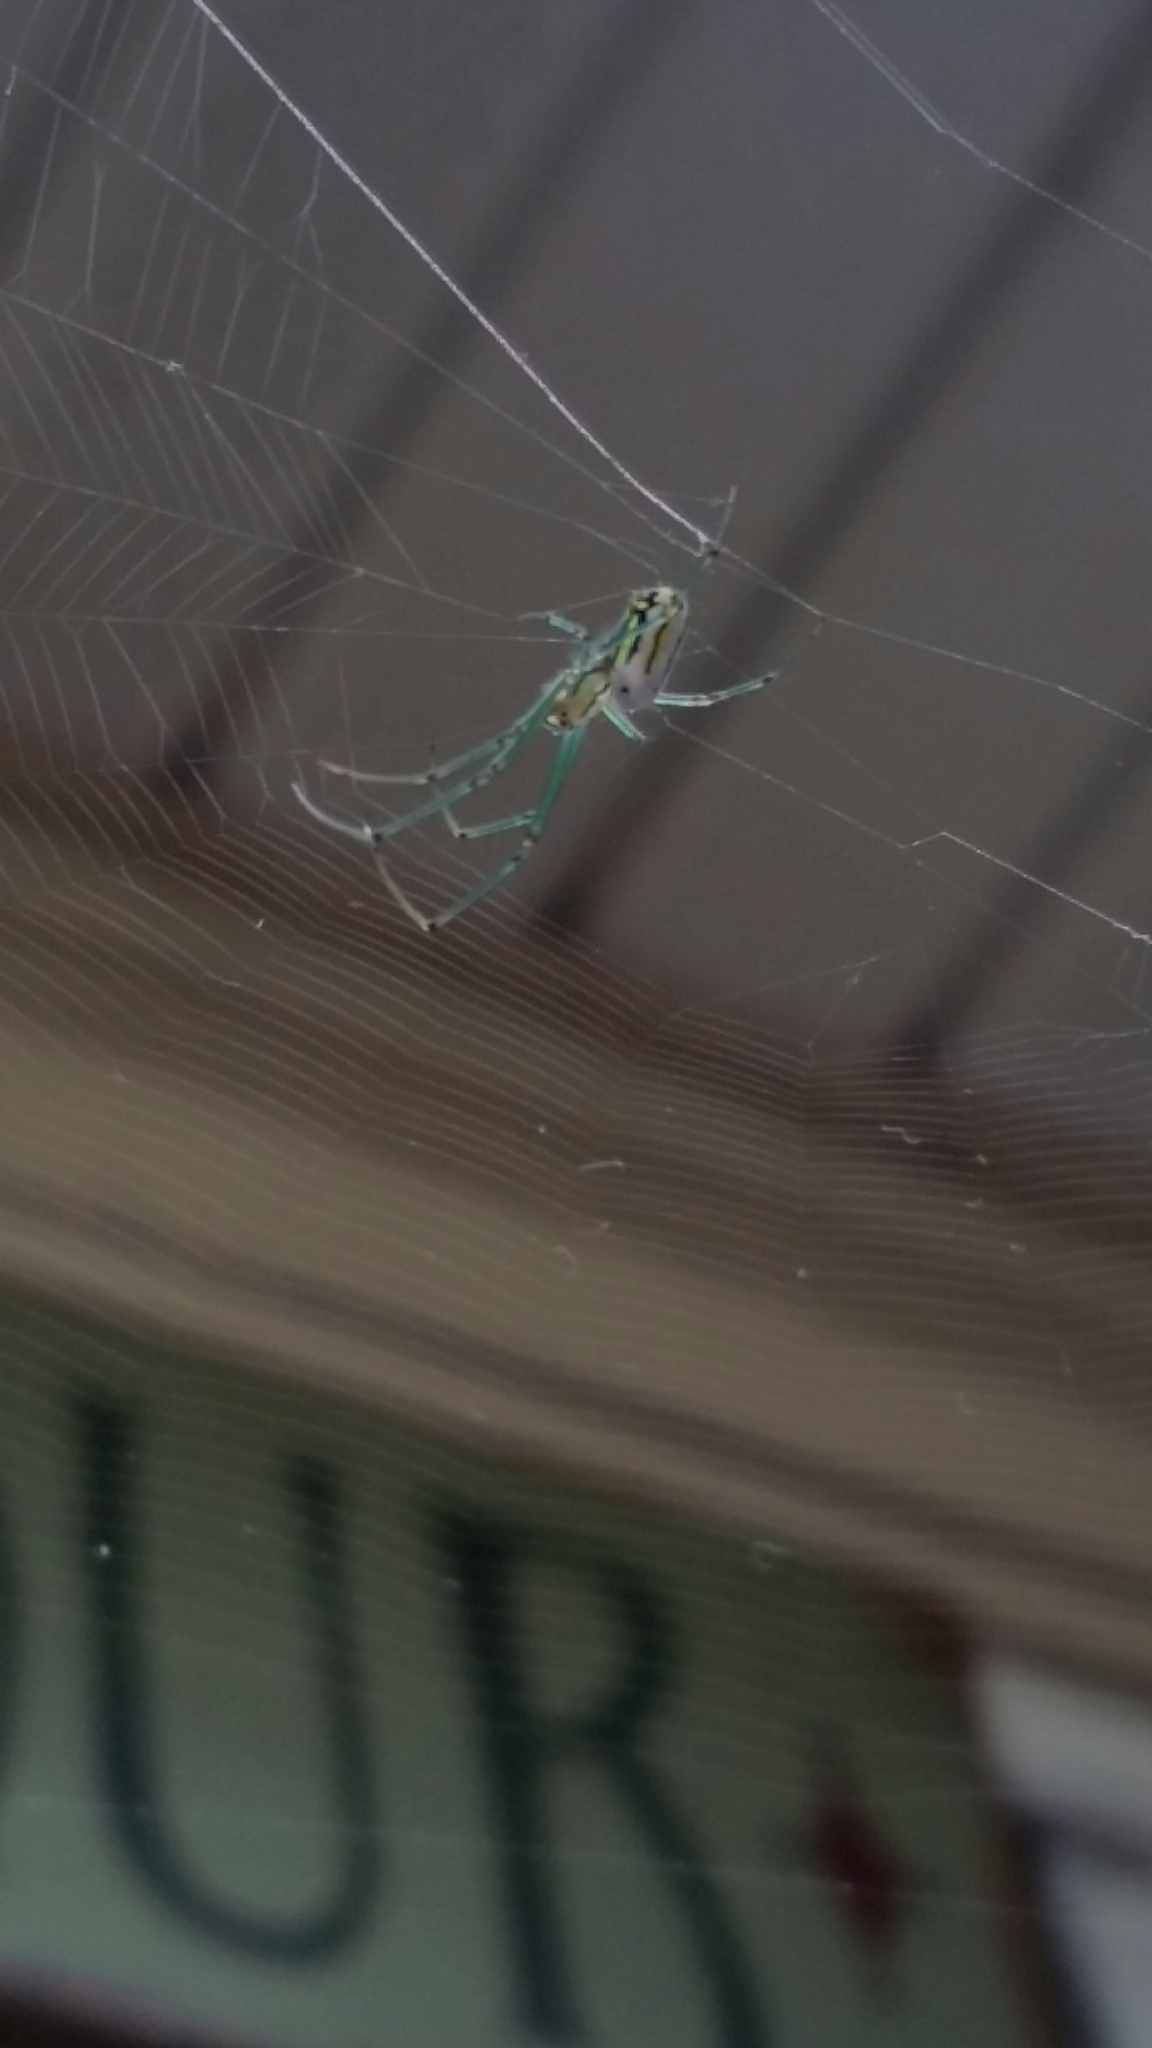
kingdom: Animalia
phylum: Arthropoda
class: Arachnida
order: Araneae
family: Tetragnathidae
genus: Leucauge
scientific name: Leucauge venusta
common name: Longjawed orb weavers
